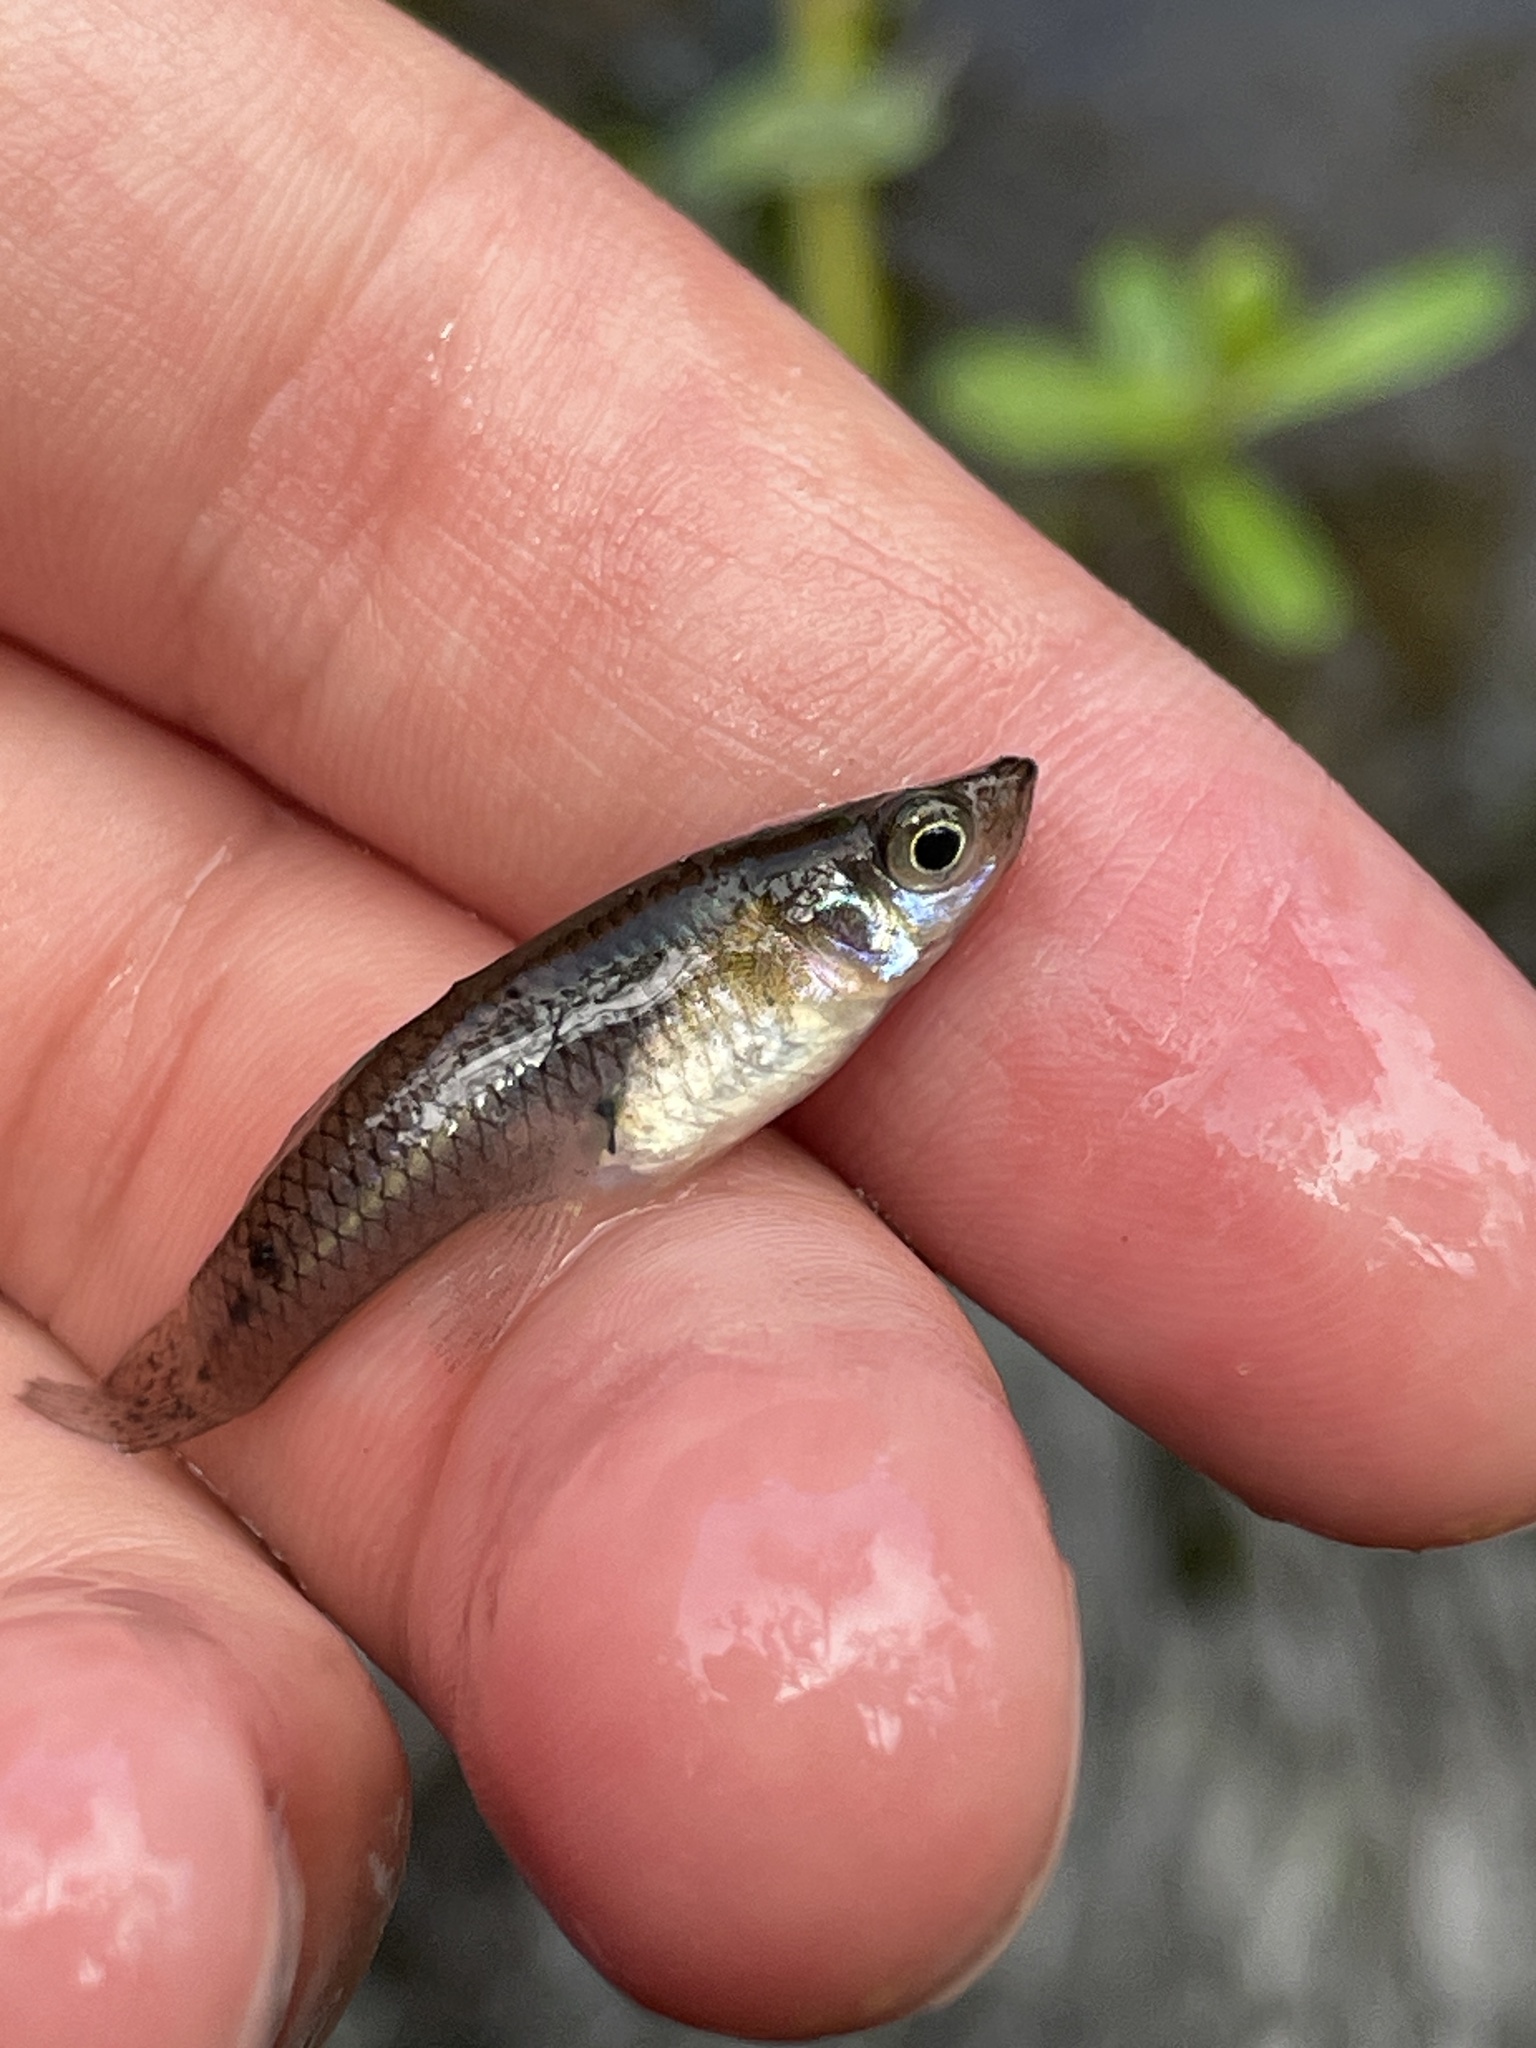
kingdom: Animalia
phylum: Chordata
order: Cyprinodontiformes
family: Poeciliidae
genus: Gambusia
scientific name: Gambusia holbrooki
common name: Eastern mosquitofish
